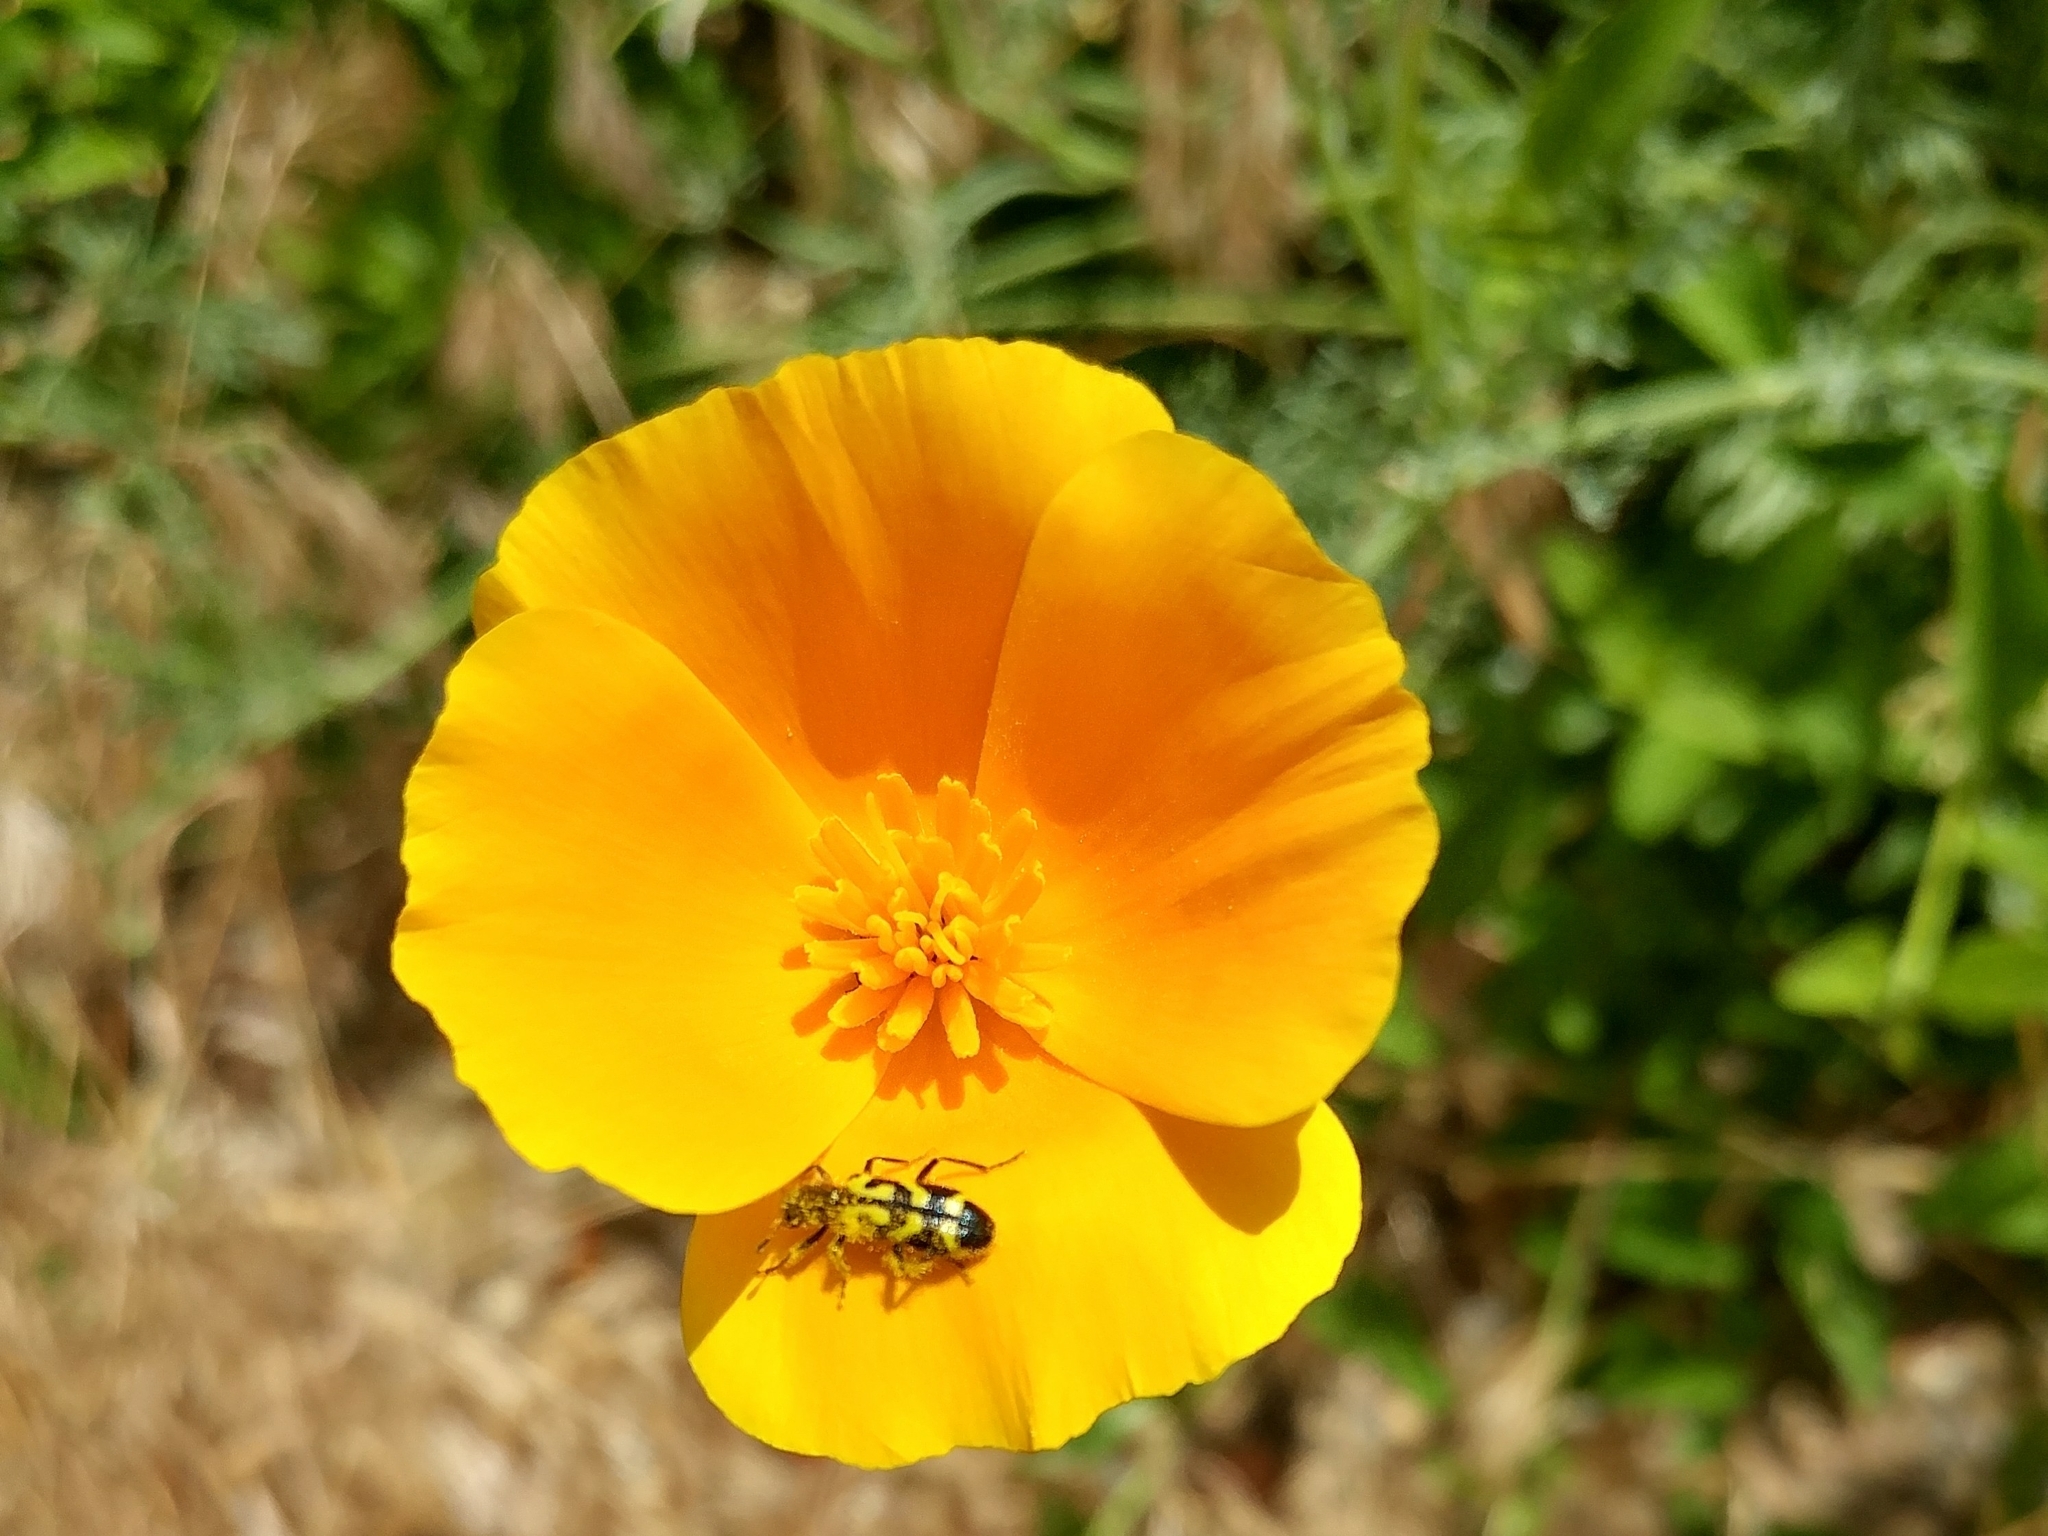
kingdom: Plantae
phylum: Tracheophyta
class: Magnoliopsida
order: Ranunculales
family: Papaveraceae
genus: Eschscholzia
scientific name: Eschscholzia
